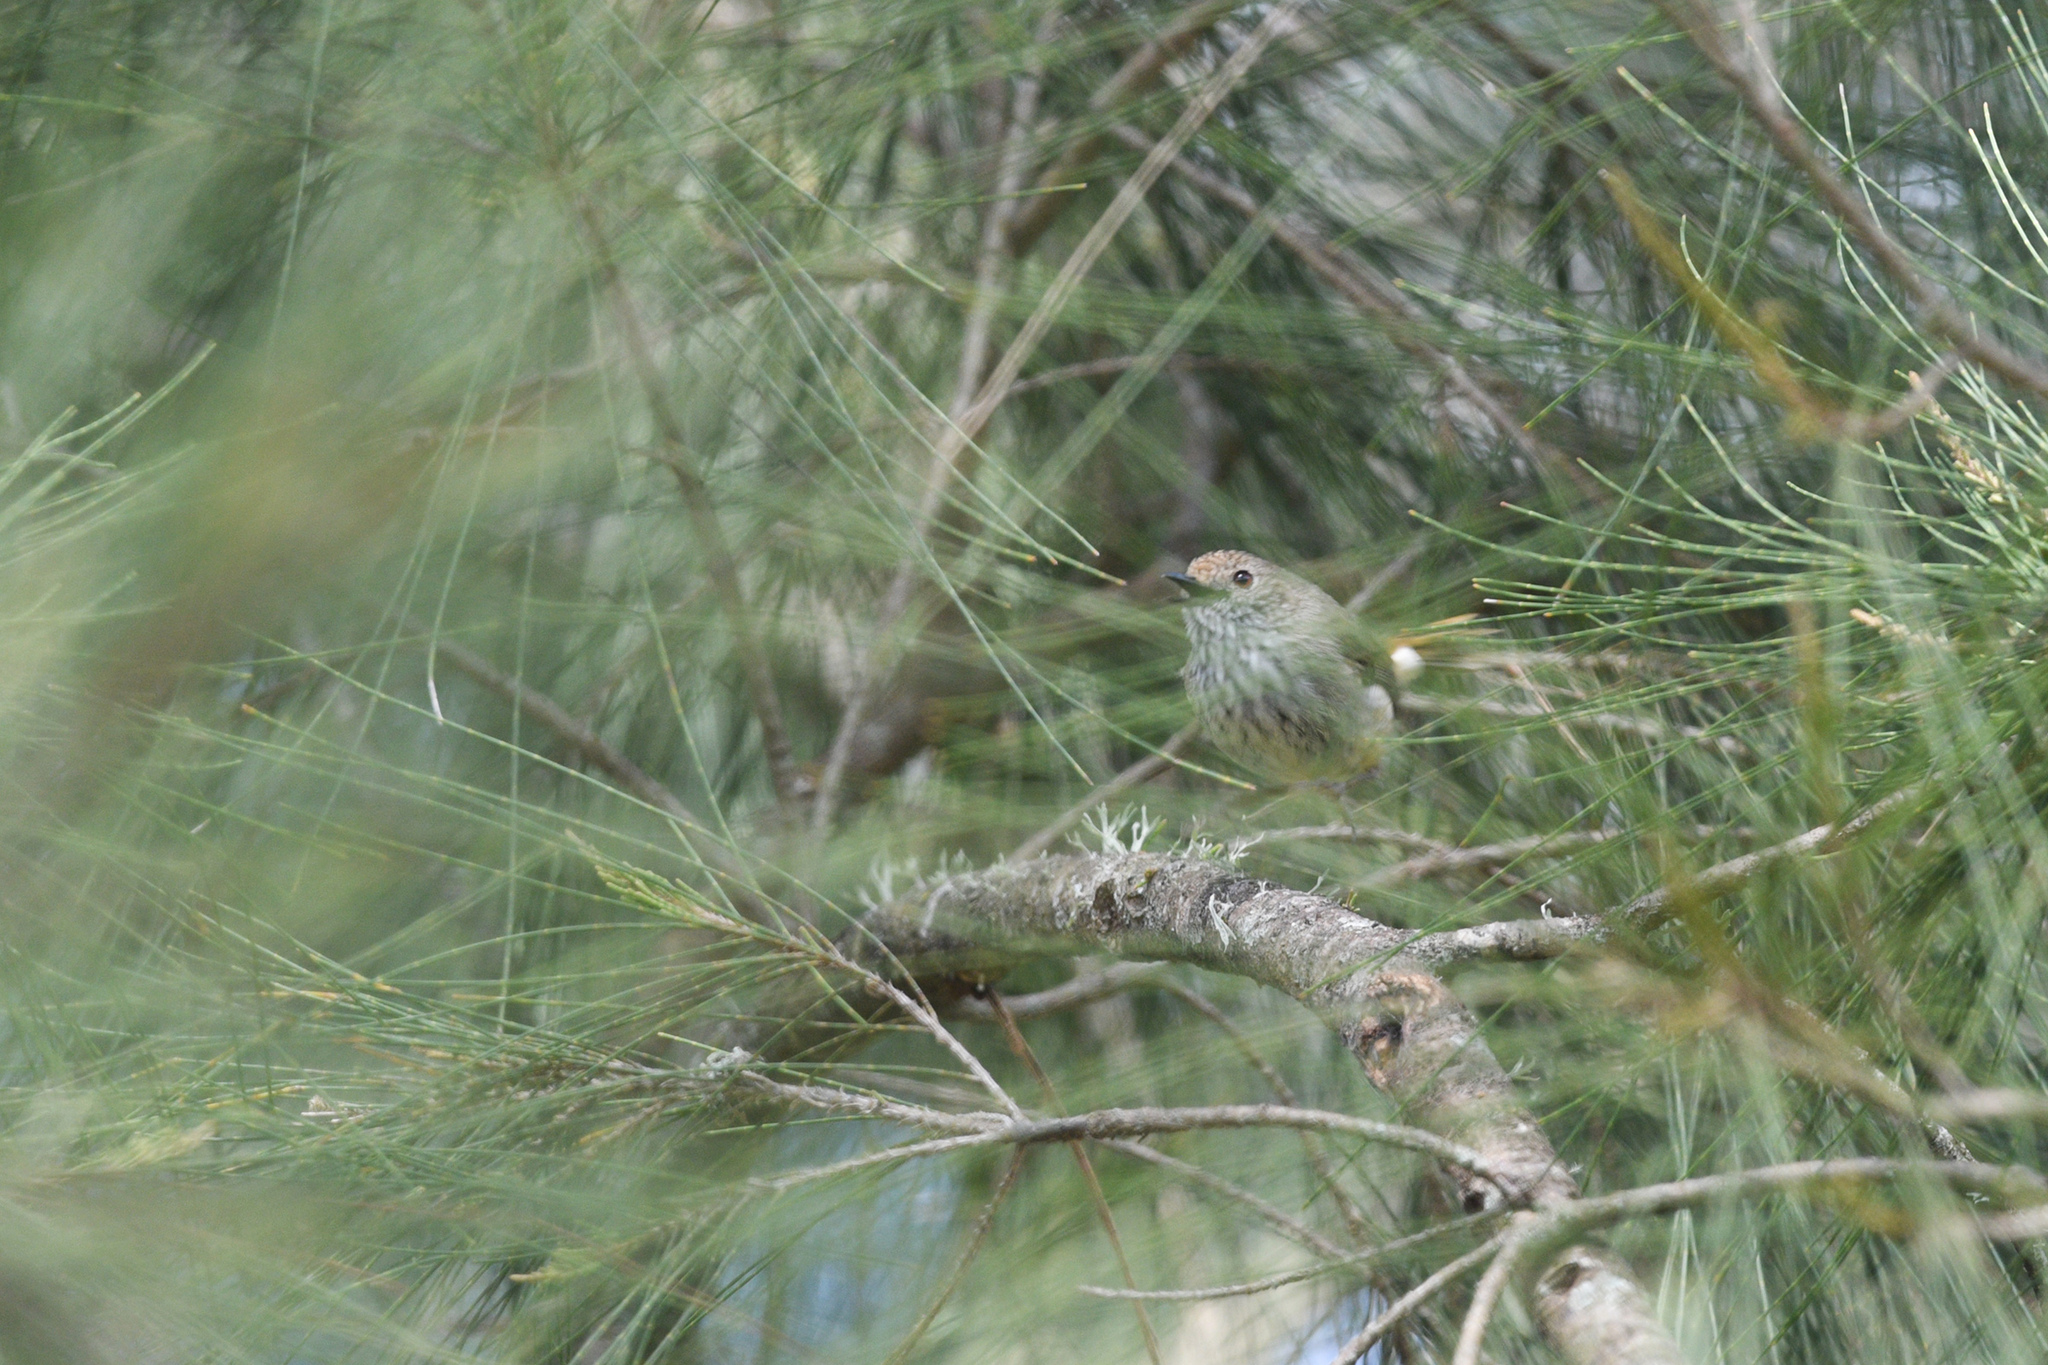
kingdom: Animalia
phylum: Chordata
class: Aves
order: Passeriformes
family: Acanthizidae
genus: Acanthiza
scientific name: Acanthiza pusilla
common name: Brown thornbill
